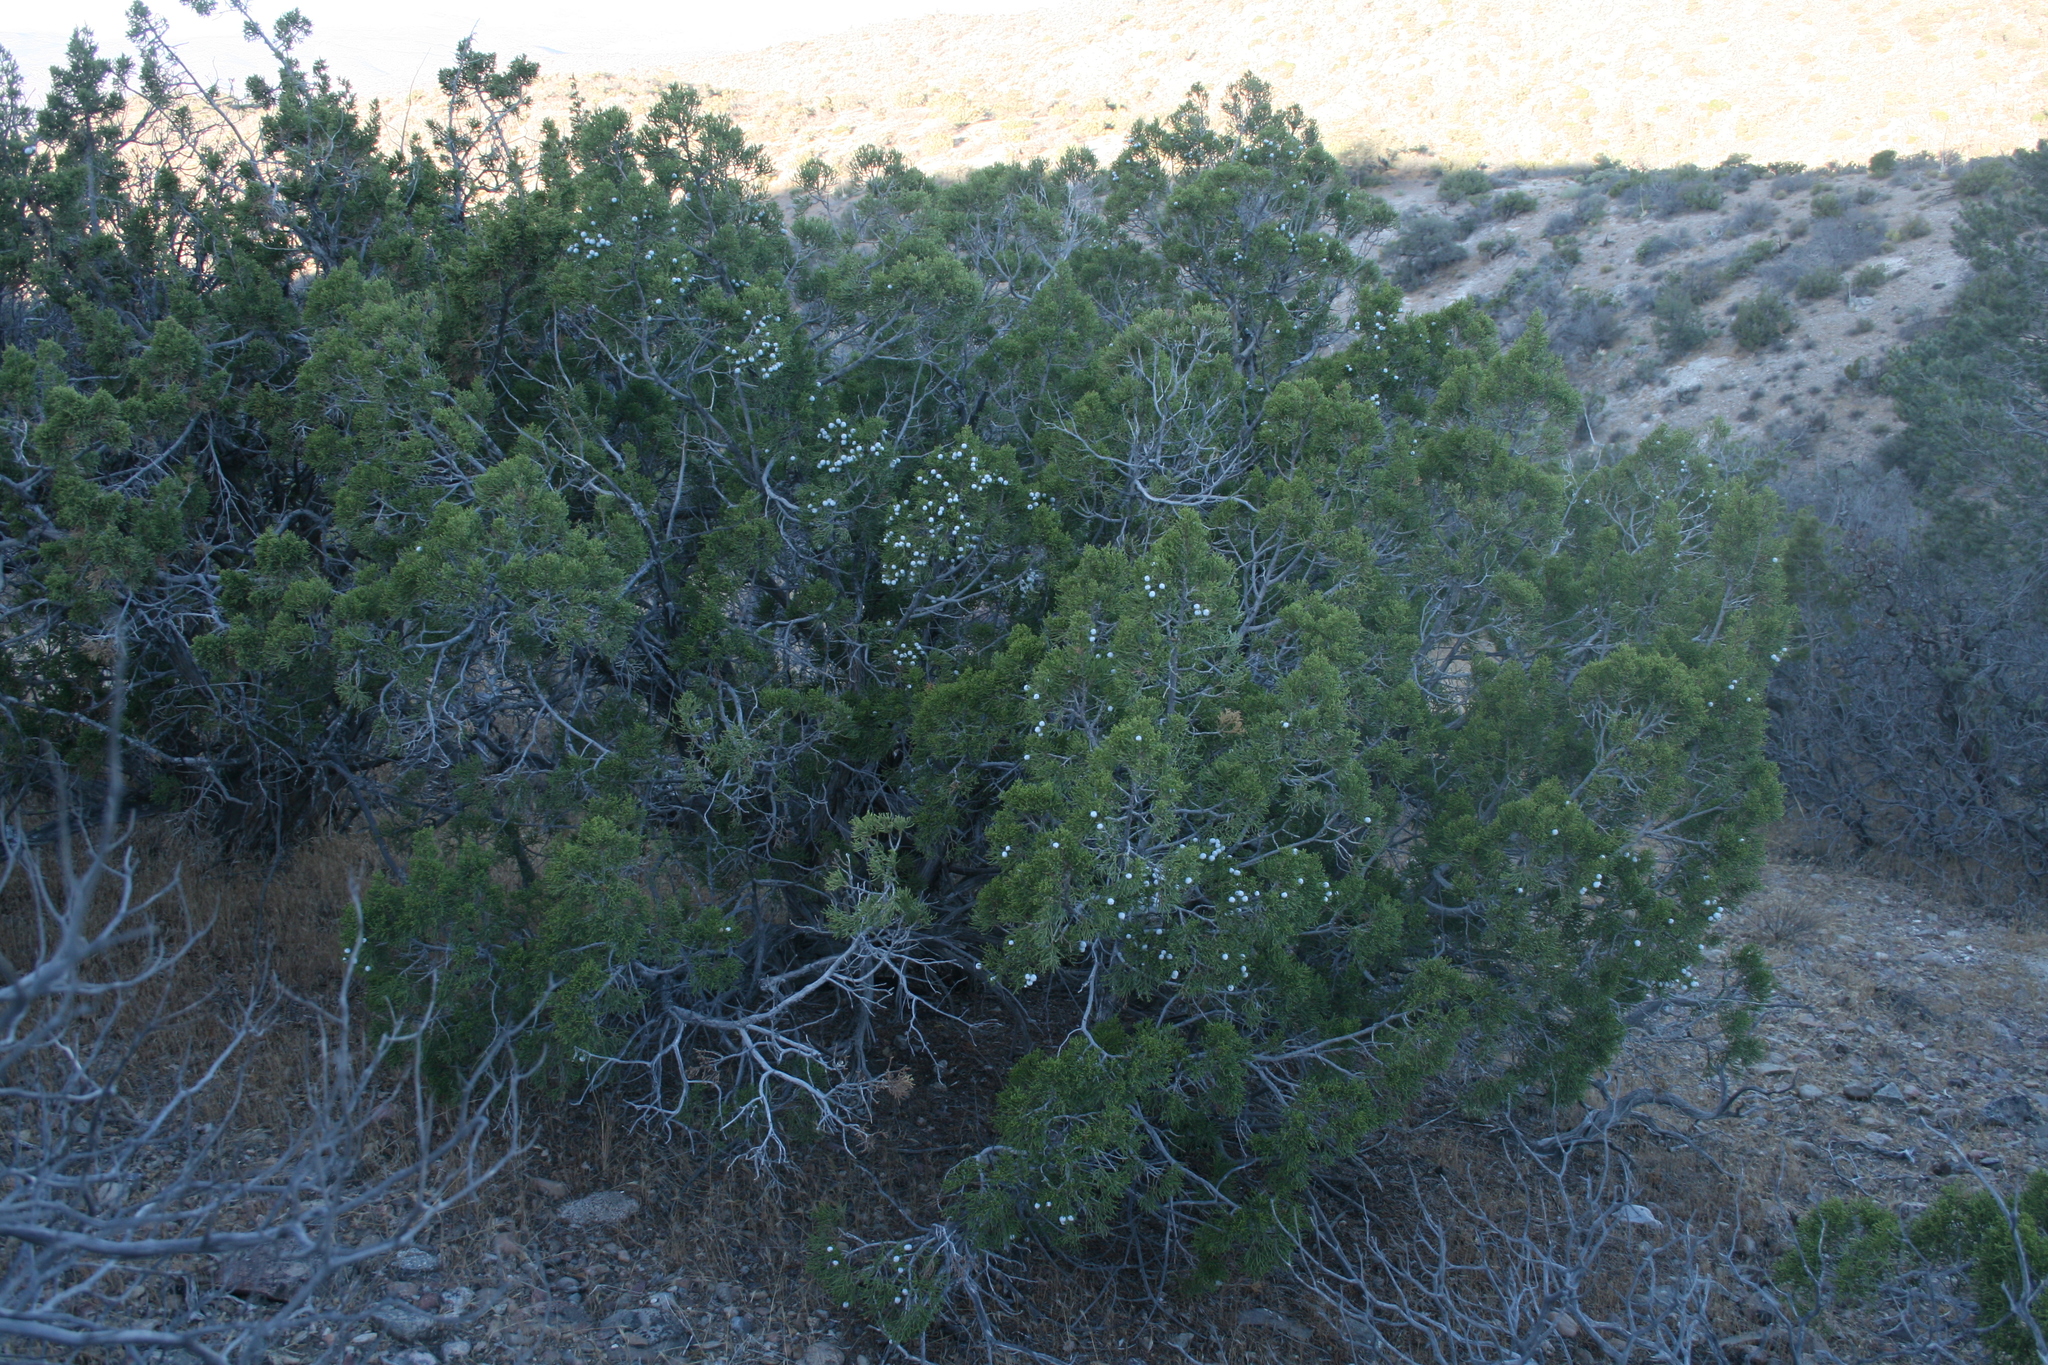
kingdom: Plantae
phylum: Tracheophyta
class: Pinopsida
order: Pinales
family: Cupressaceae
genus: Juniperus
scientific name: Juniperus californica
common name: California juniper
